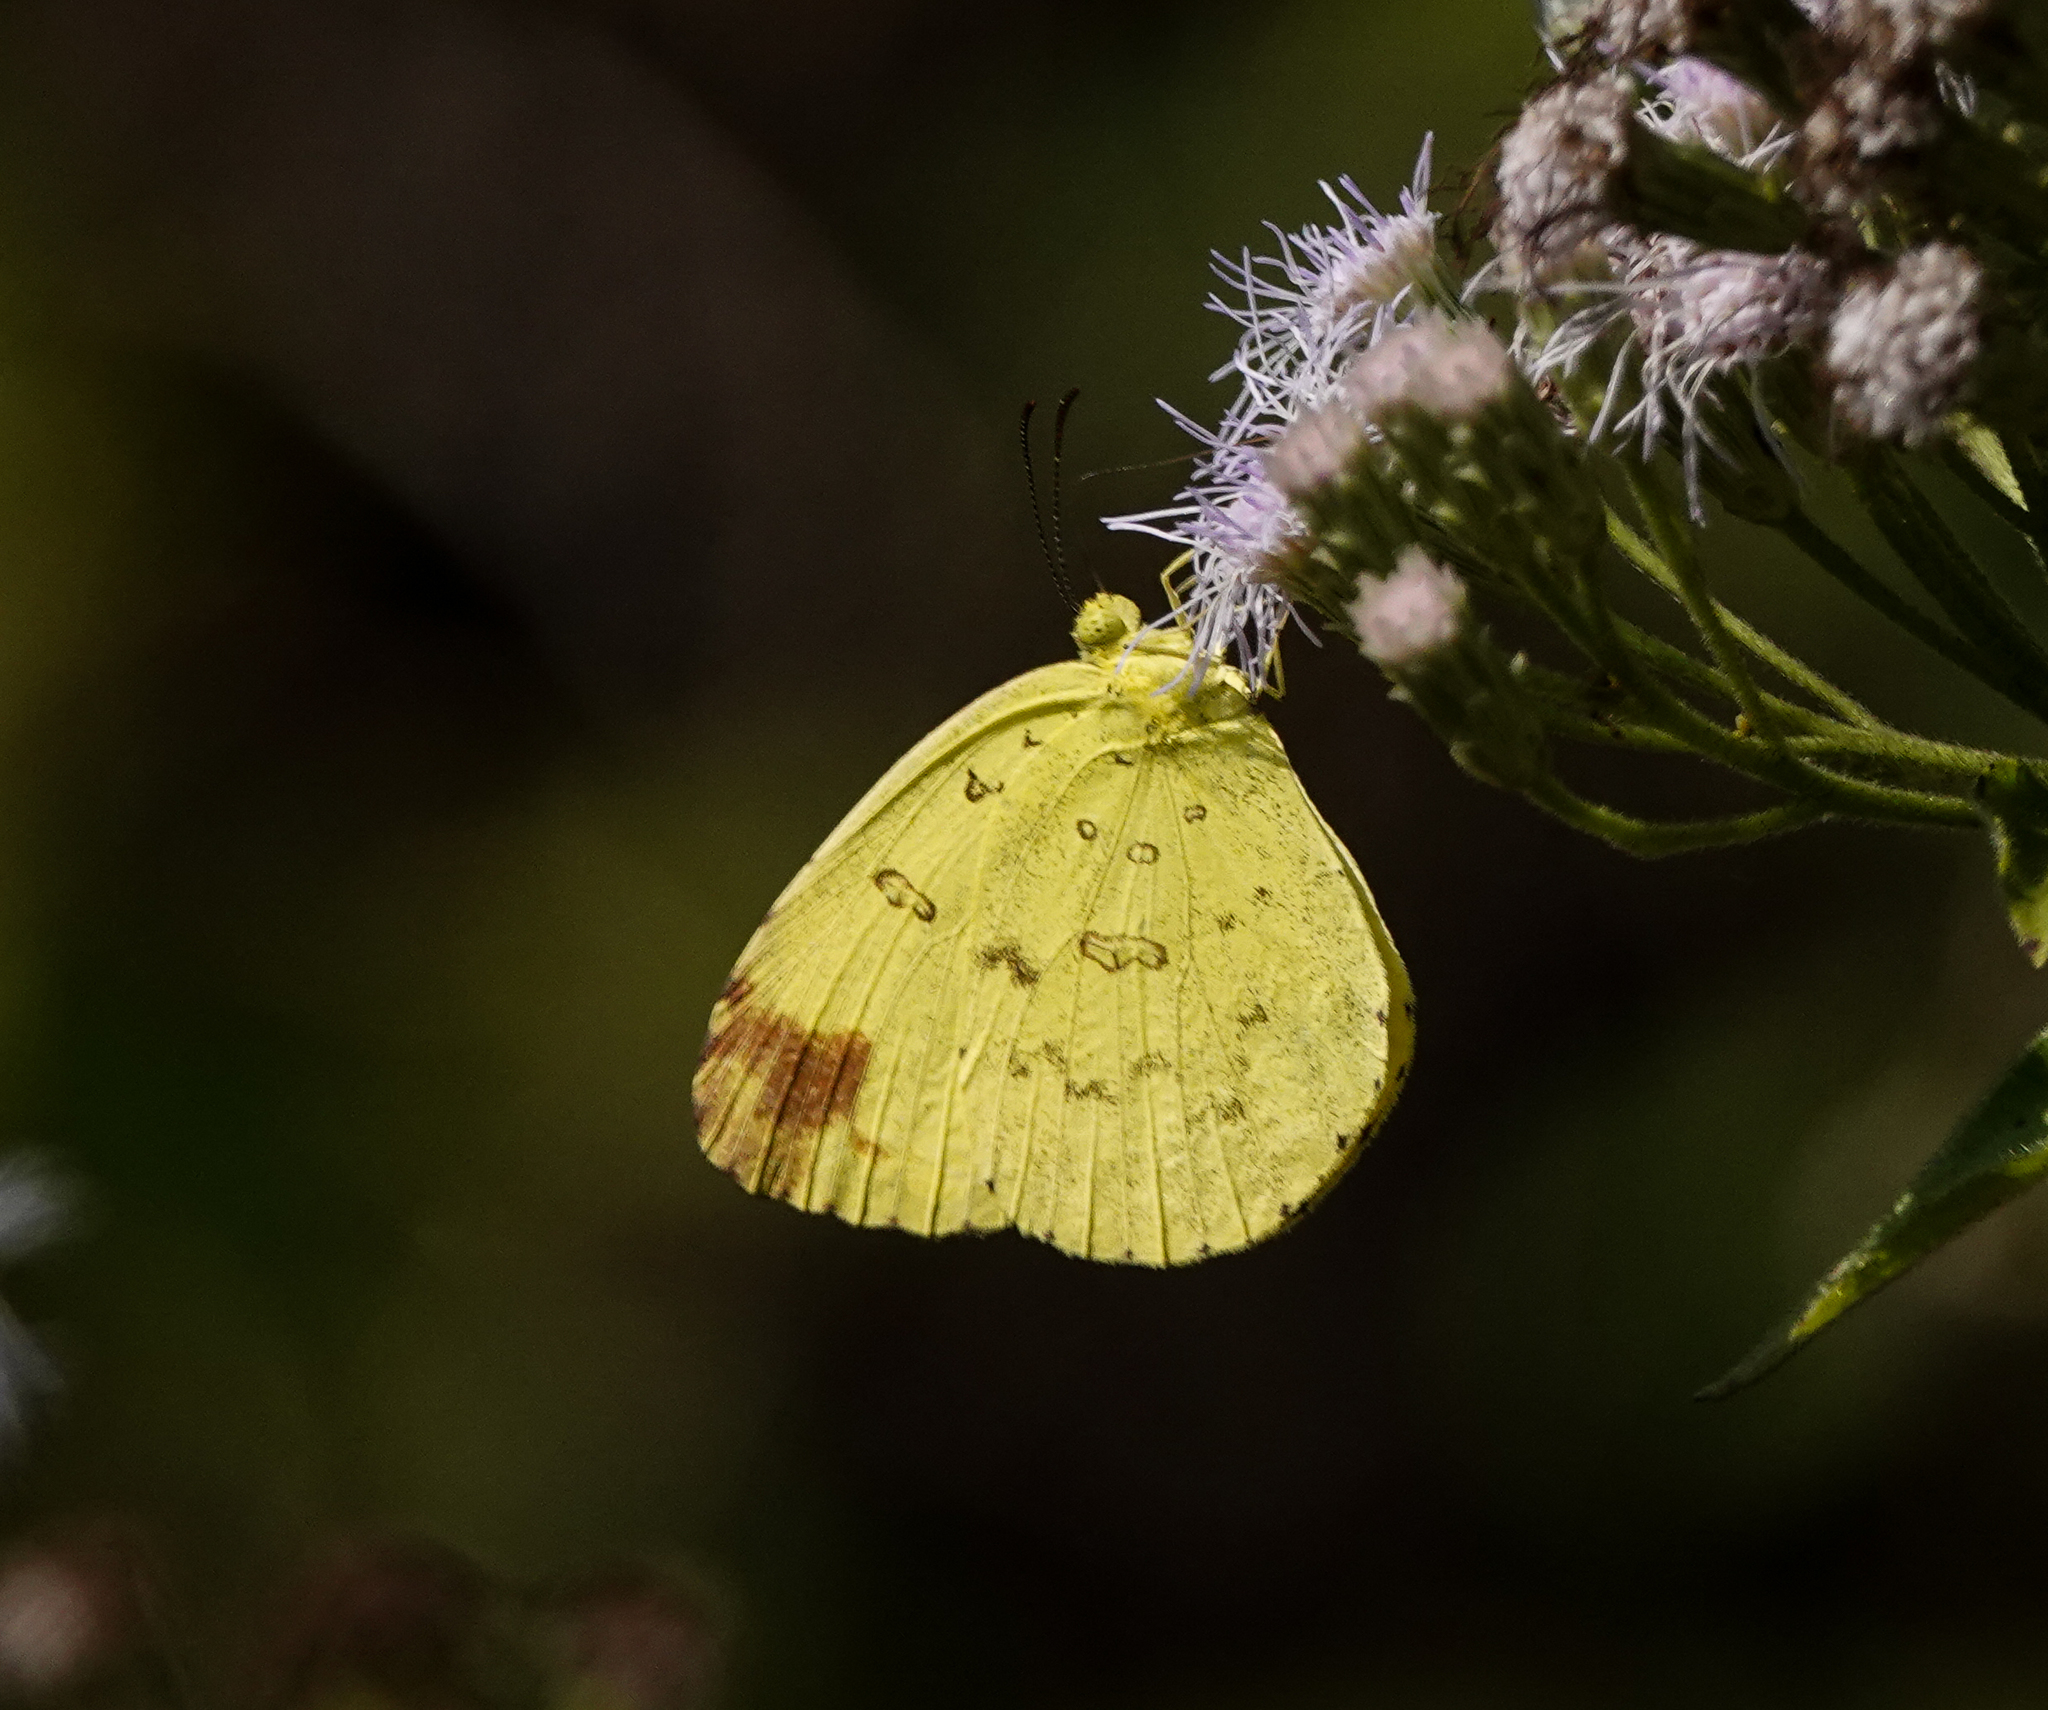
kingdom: Animalia
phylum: Arthropoda
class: Insecta
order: Lepidoptera
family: Pieridae
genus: Eurema
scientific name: Eurema blanda
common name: Three-spot grass yellow
